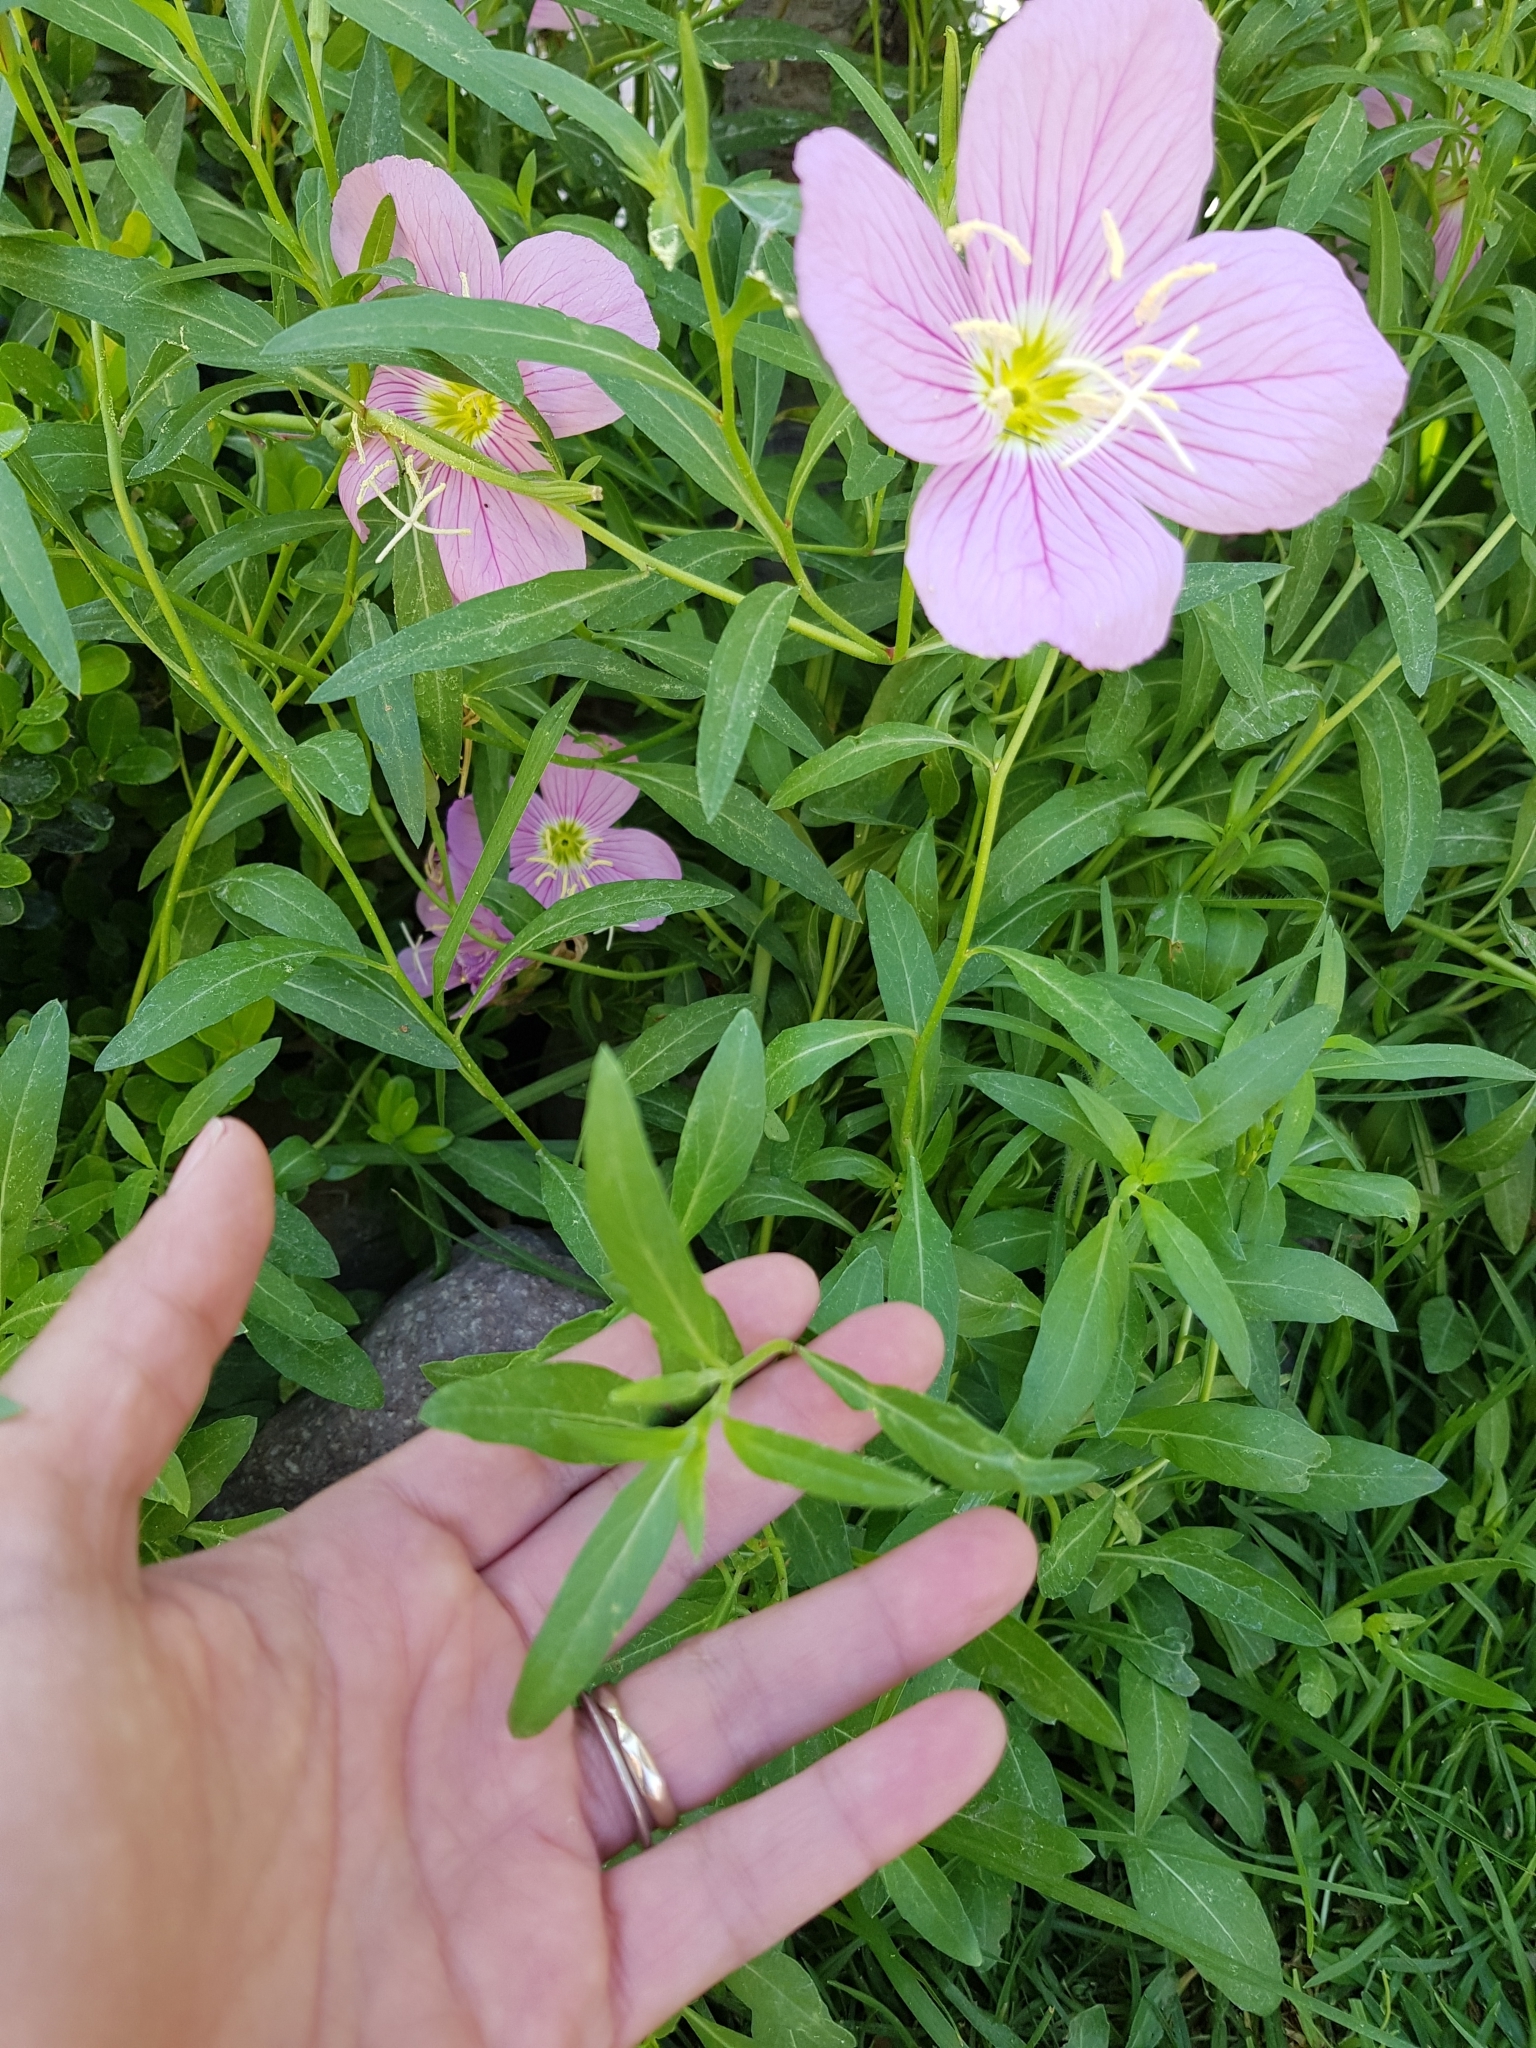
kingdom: Plantae
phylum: Tracheophyta
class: Magnoliopsida
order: Myrtales
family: Onagraceae
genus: Oenothera
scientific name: Oenothera speciosa
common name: White evening-primrose
